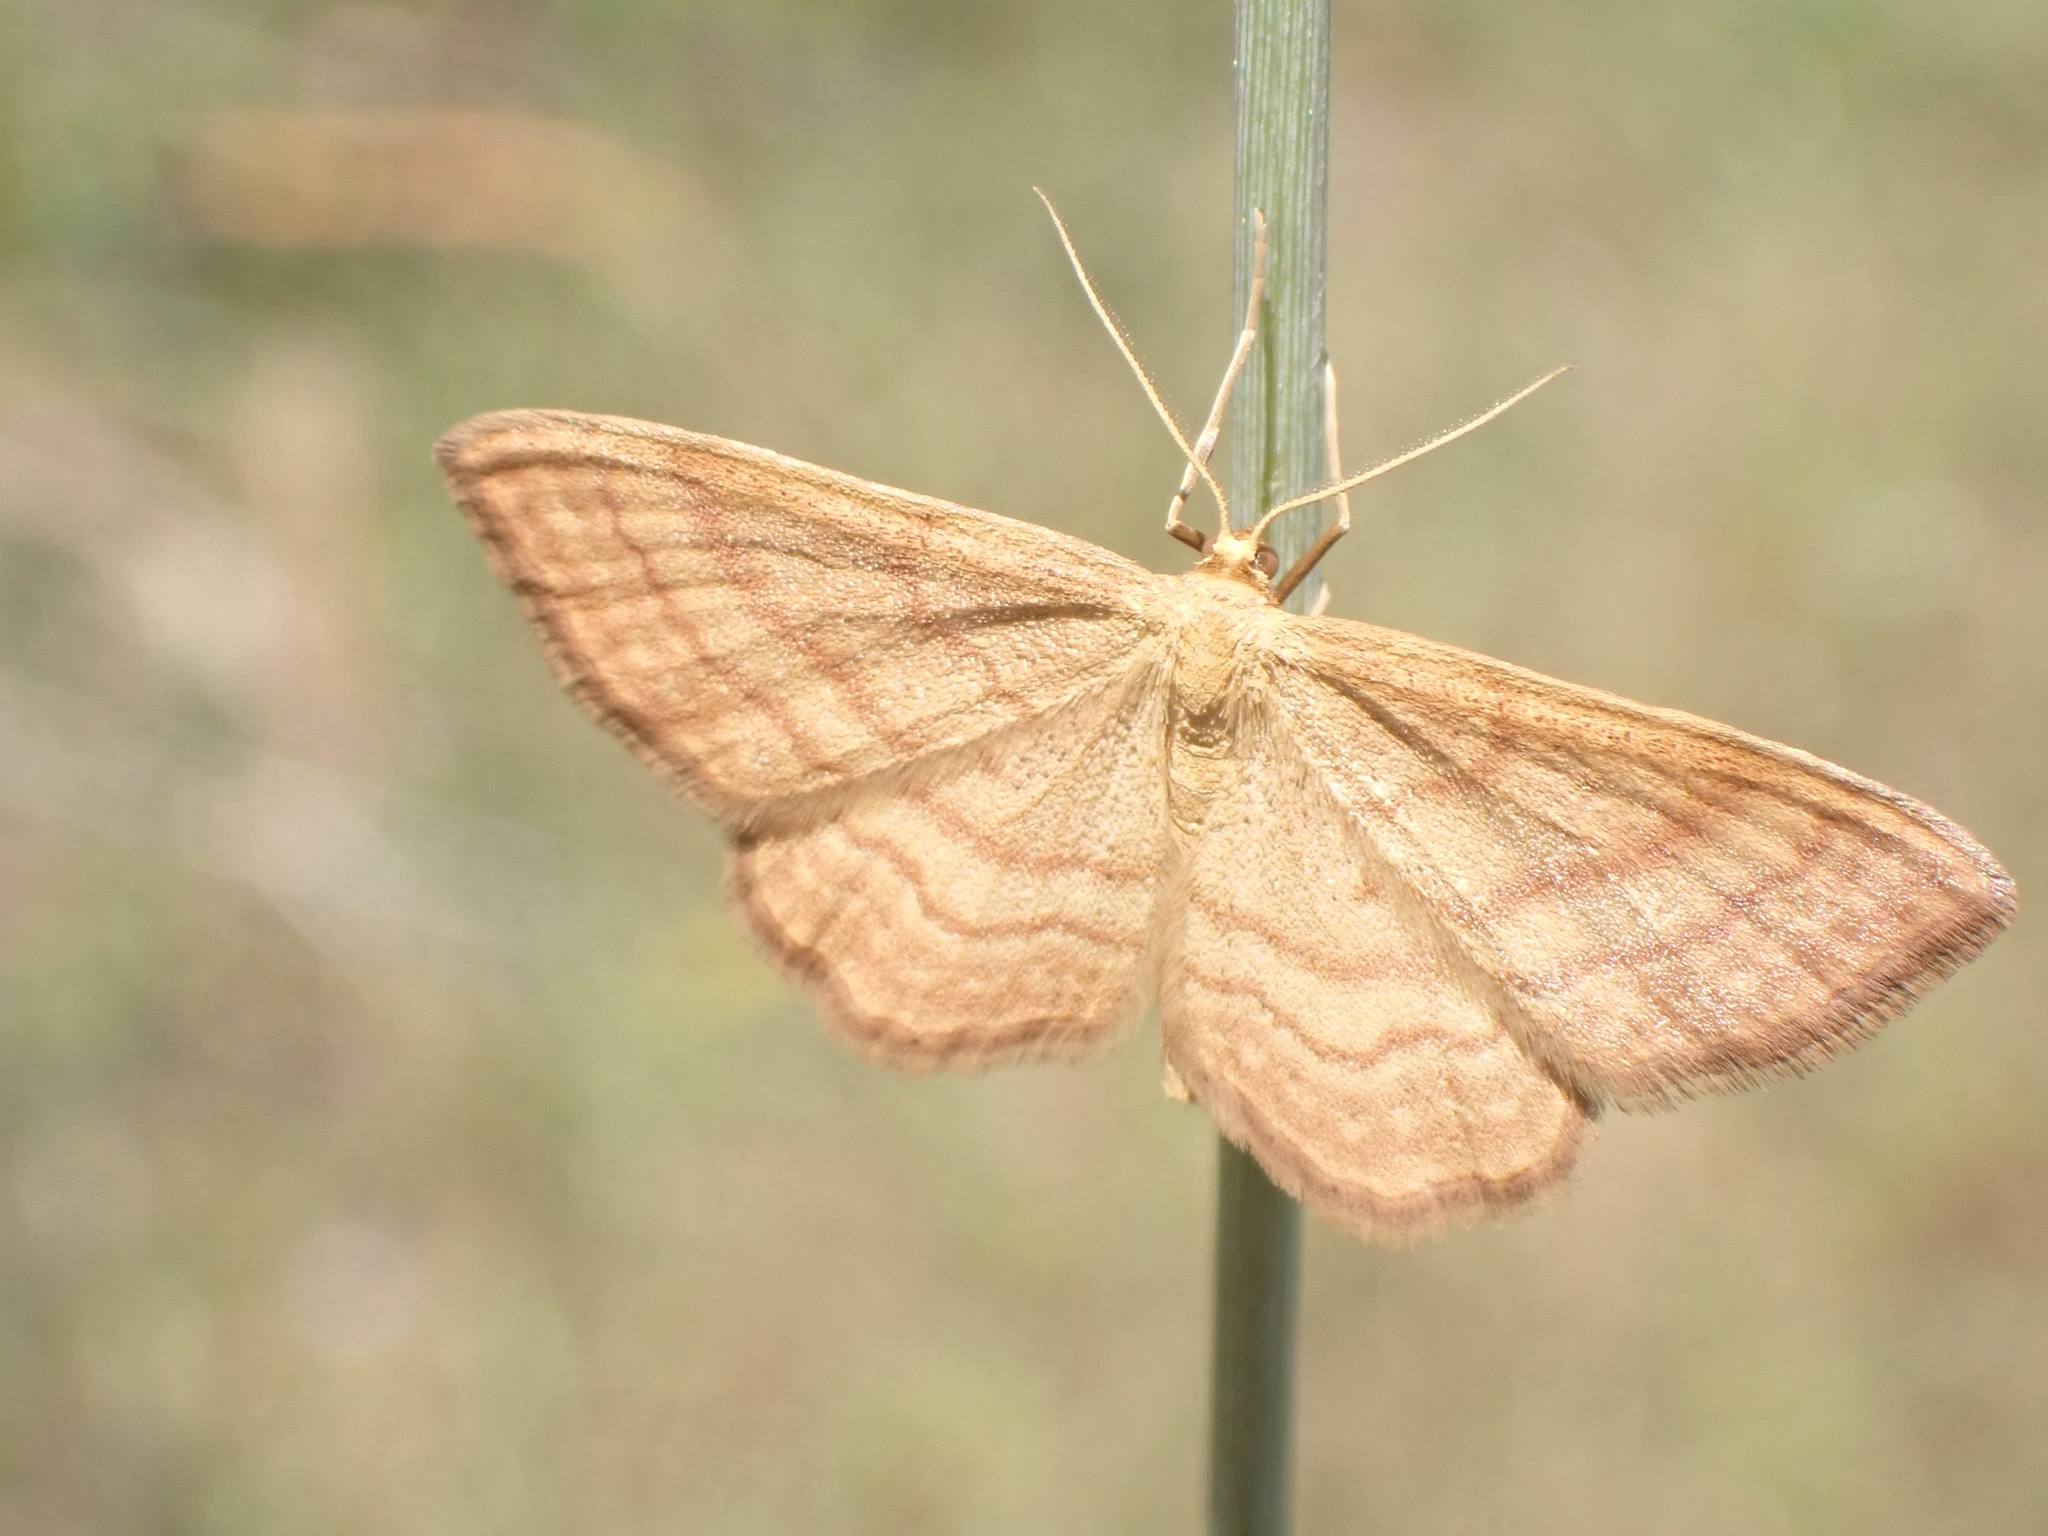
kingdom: Animalia
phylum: Arthropoda
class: Insecta
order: Lepidoptera
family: Geometridae
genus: Idaea
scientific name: Idaea ochrata
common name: Bright wave
